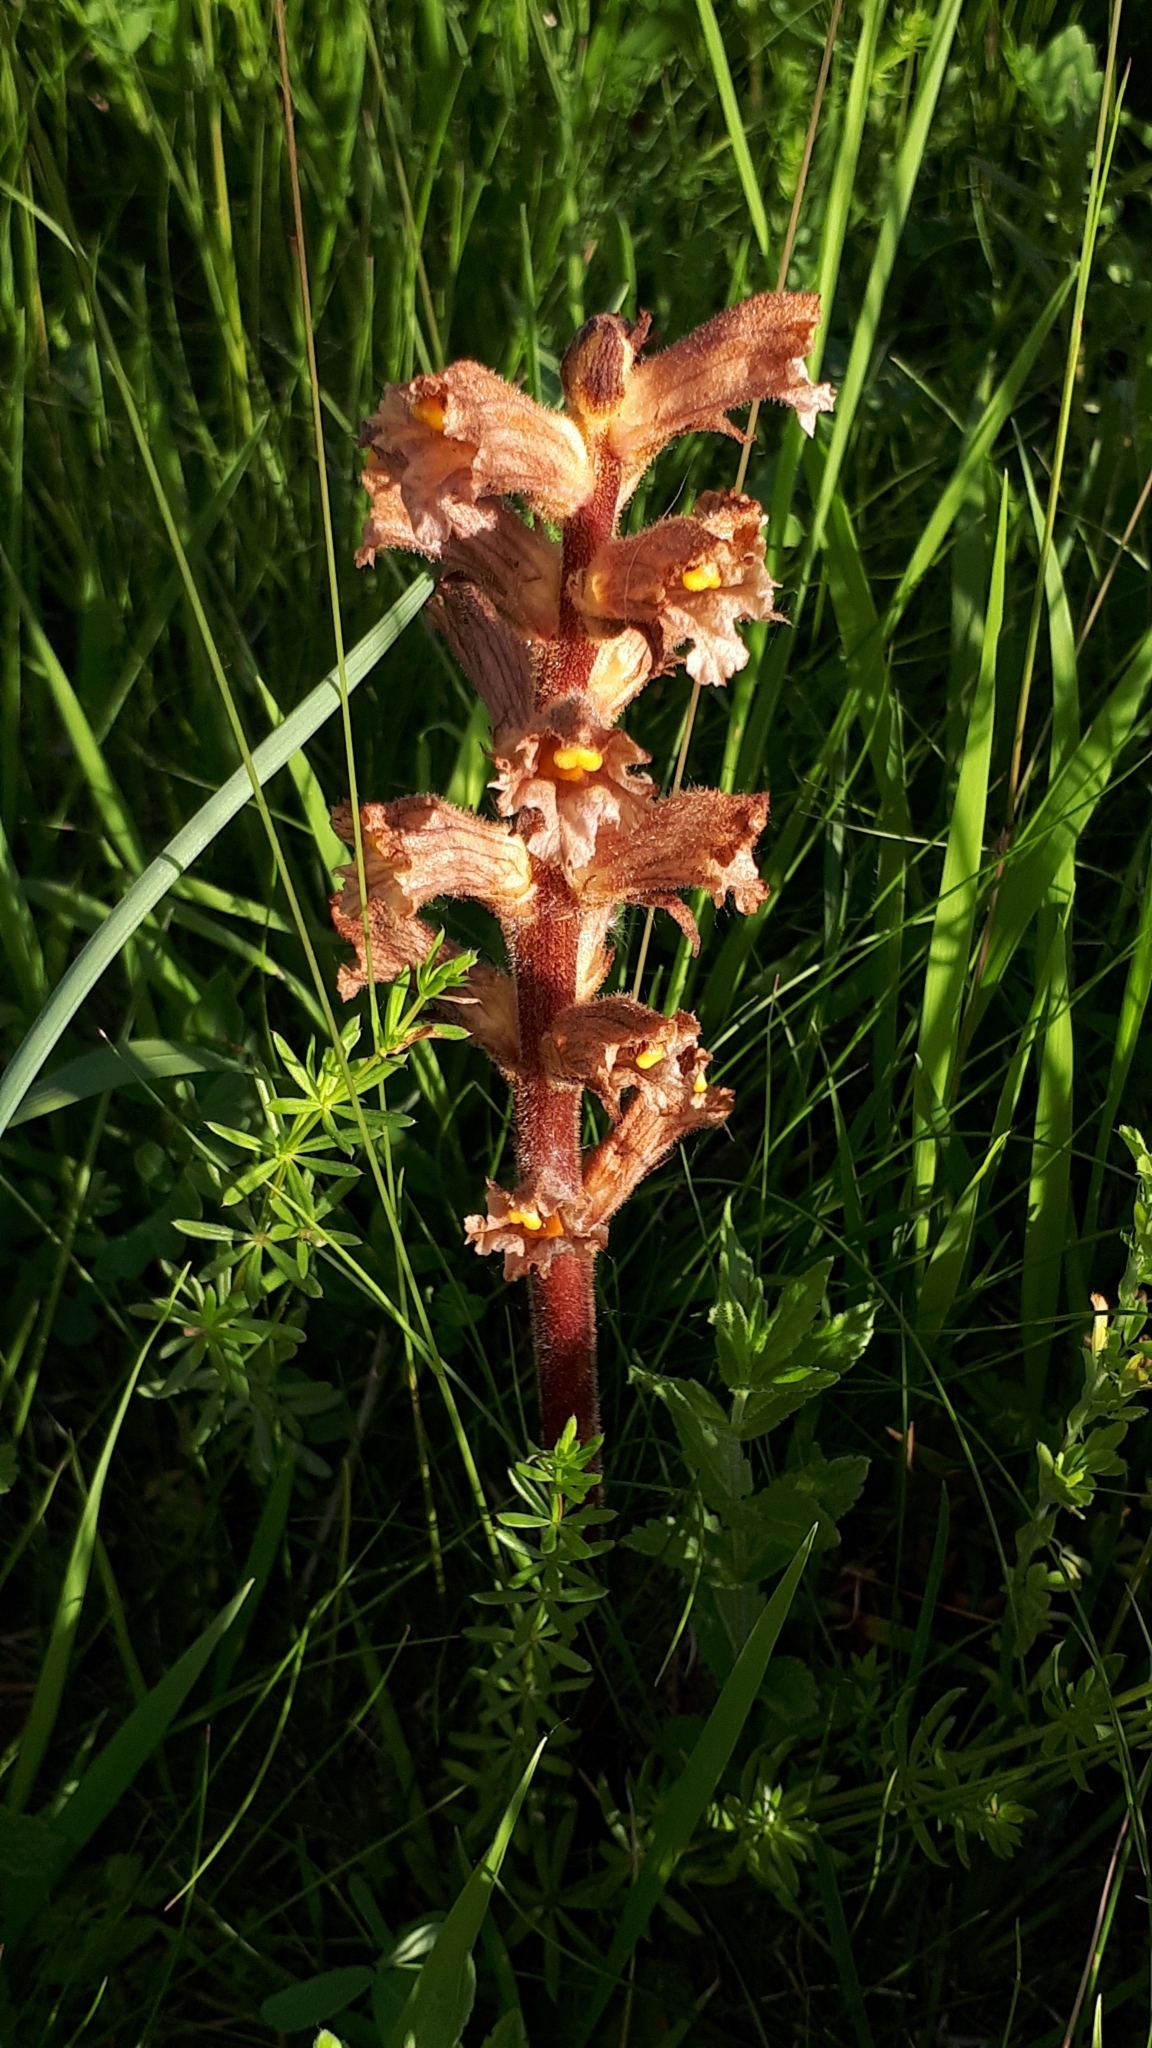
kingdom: Plantae
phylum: Tracheophyta
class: Magnoliopsida
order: Lamiales
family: Orobanchaceae
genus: Orobanche
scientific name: Orobanche lutea
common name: Yellow broomrape
